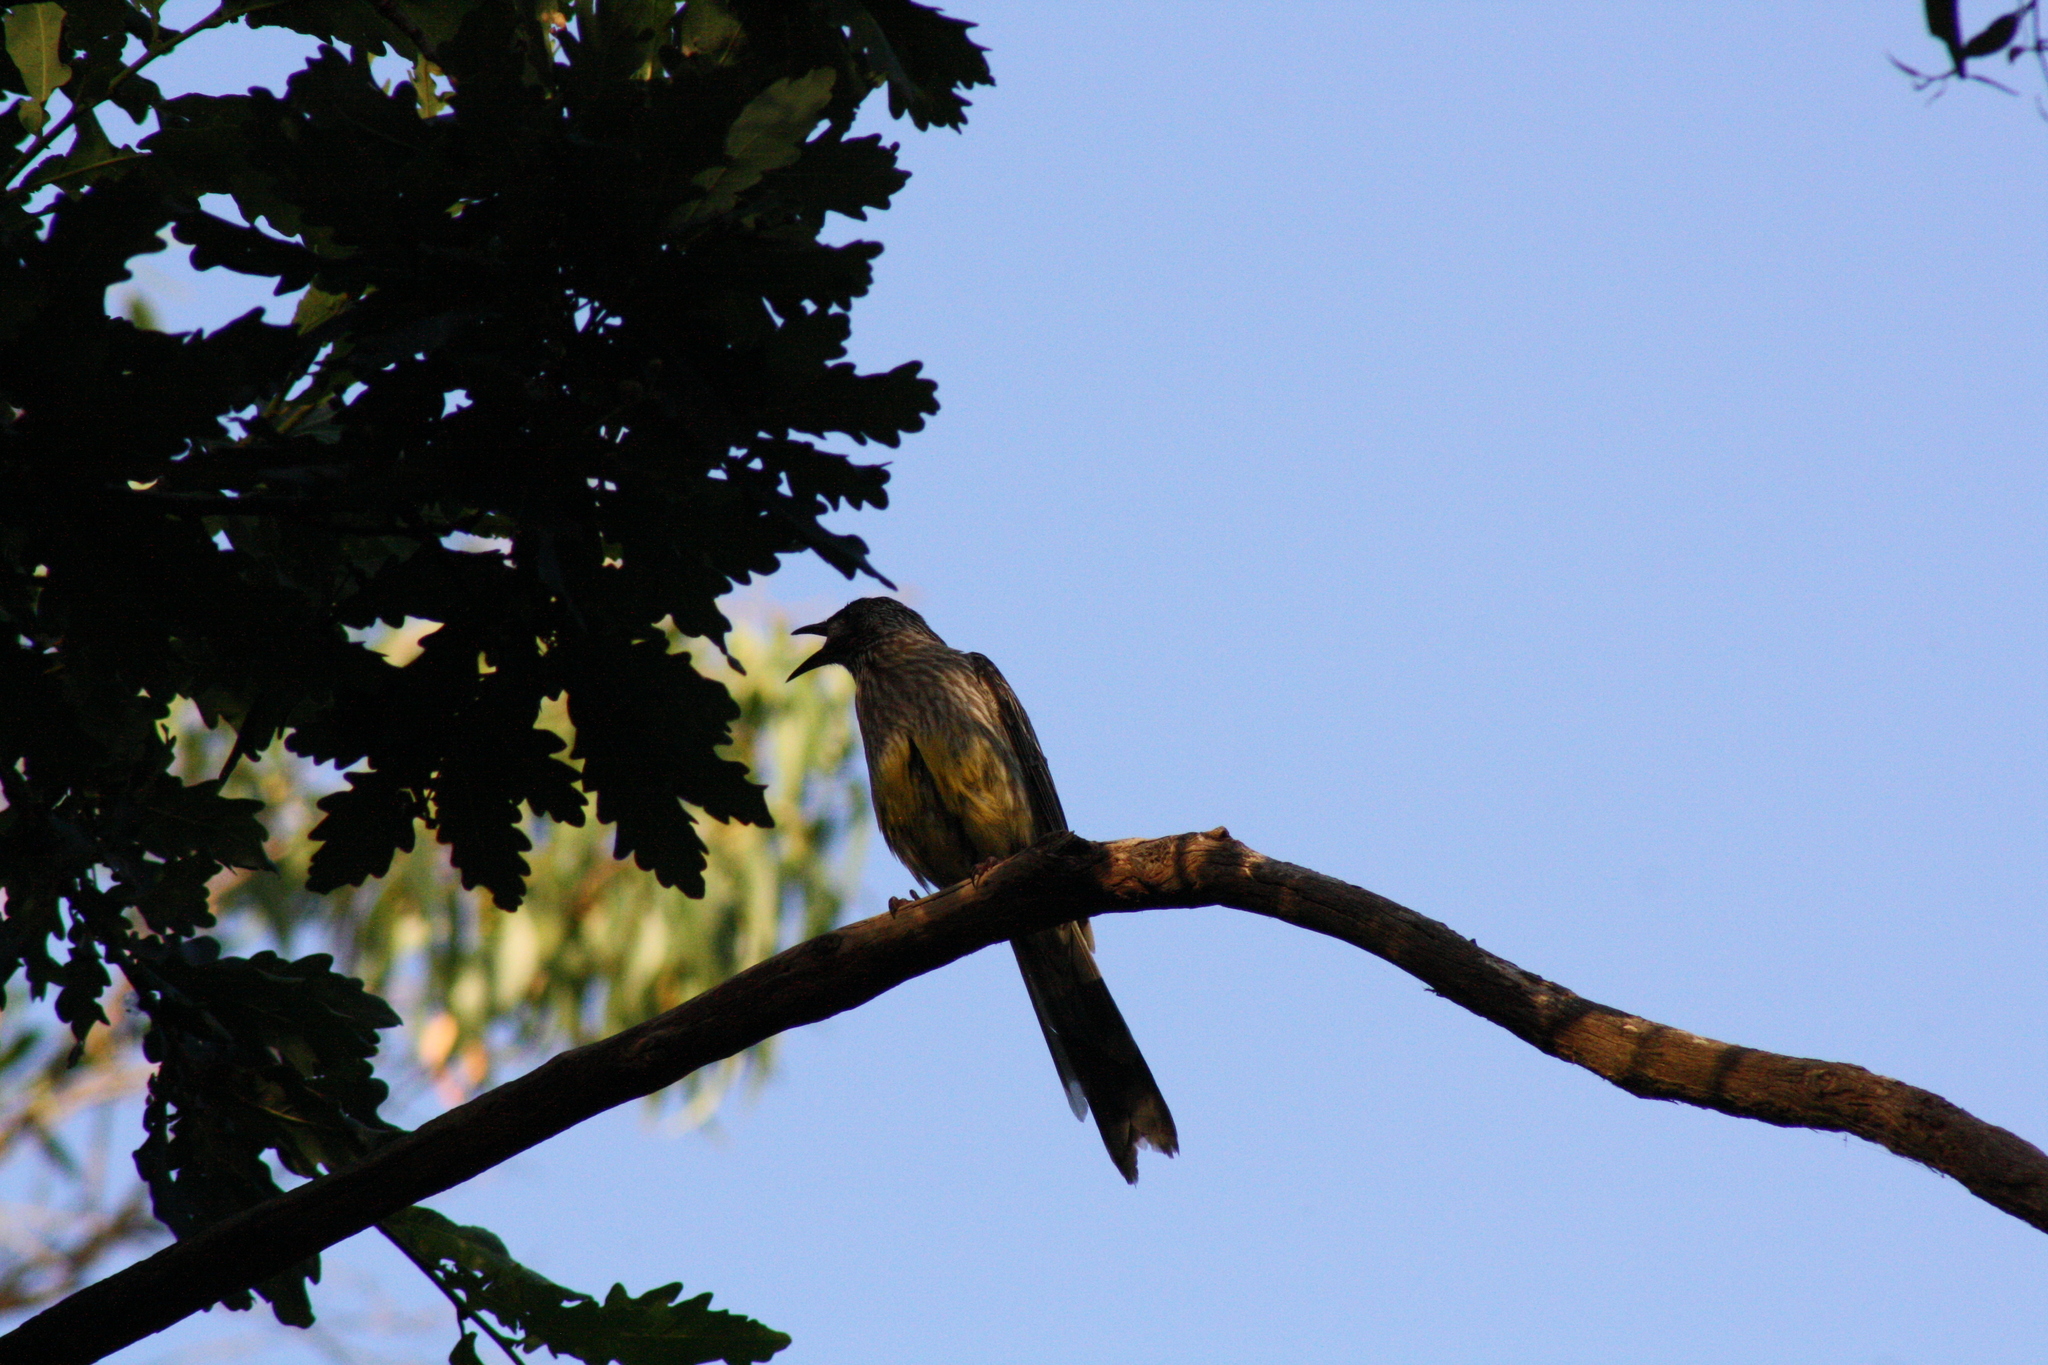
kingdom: Animalia
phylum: Chordata
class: Aves
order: Passeriformes
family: Meliphagidae
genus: Anthochaera
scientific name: Anthochaera carunculata
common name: Red wattlebird
